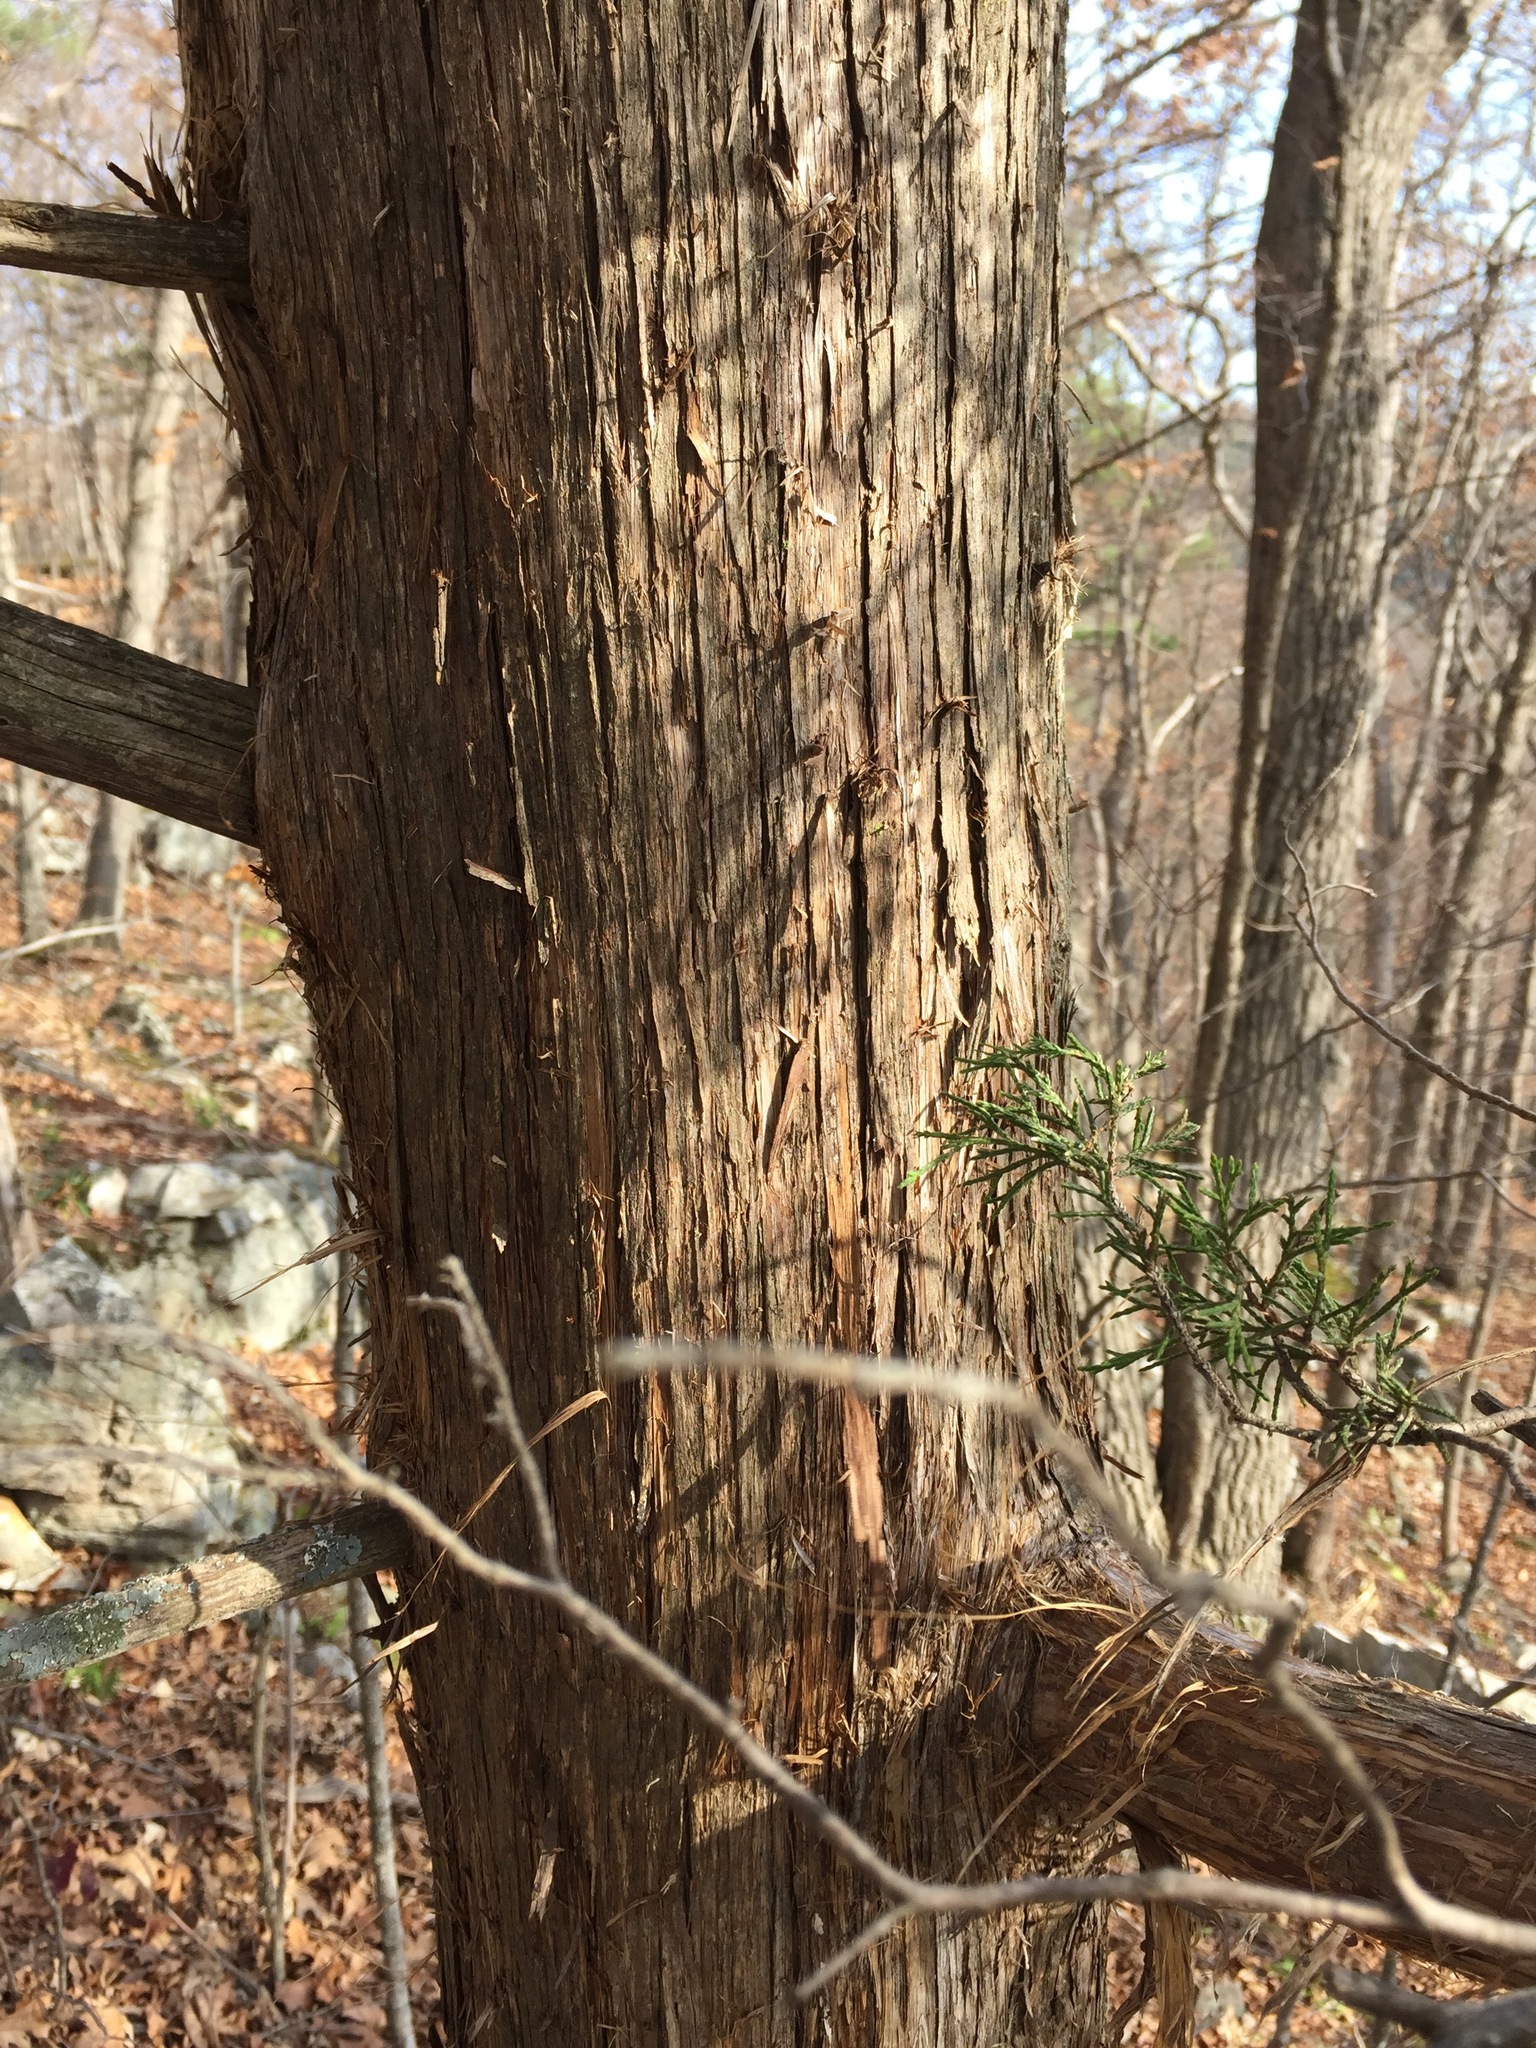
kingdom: Plantae
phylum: Tracheophyta
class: Pinopsida
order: Pinales
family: Cupressaceae
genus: Juniperus
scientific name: Juniperus virginiana
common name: Red juniper
